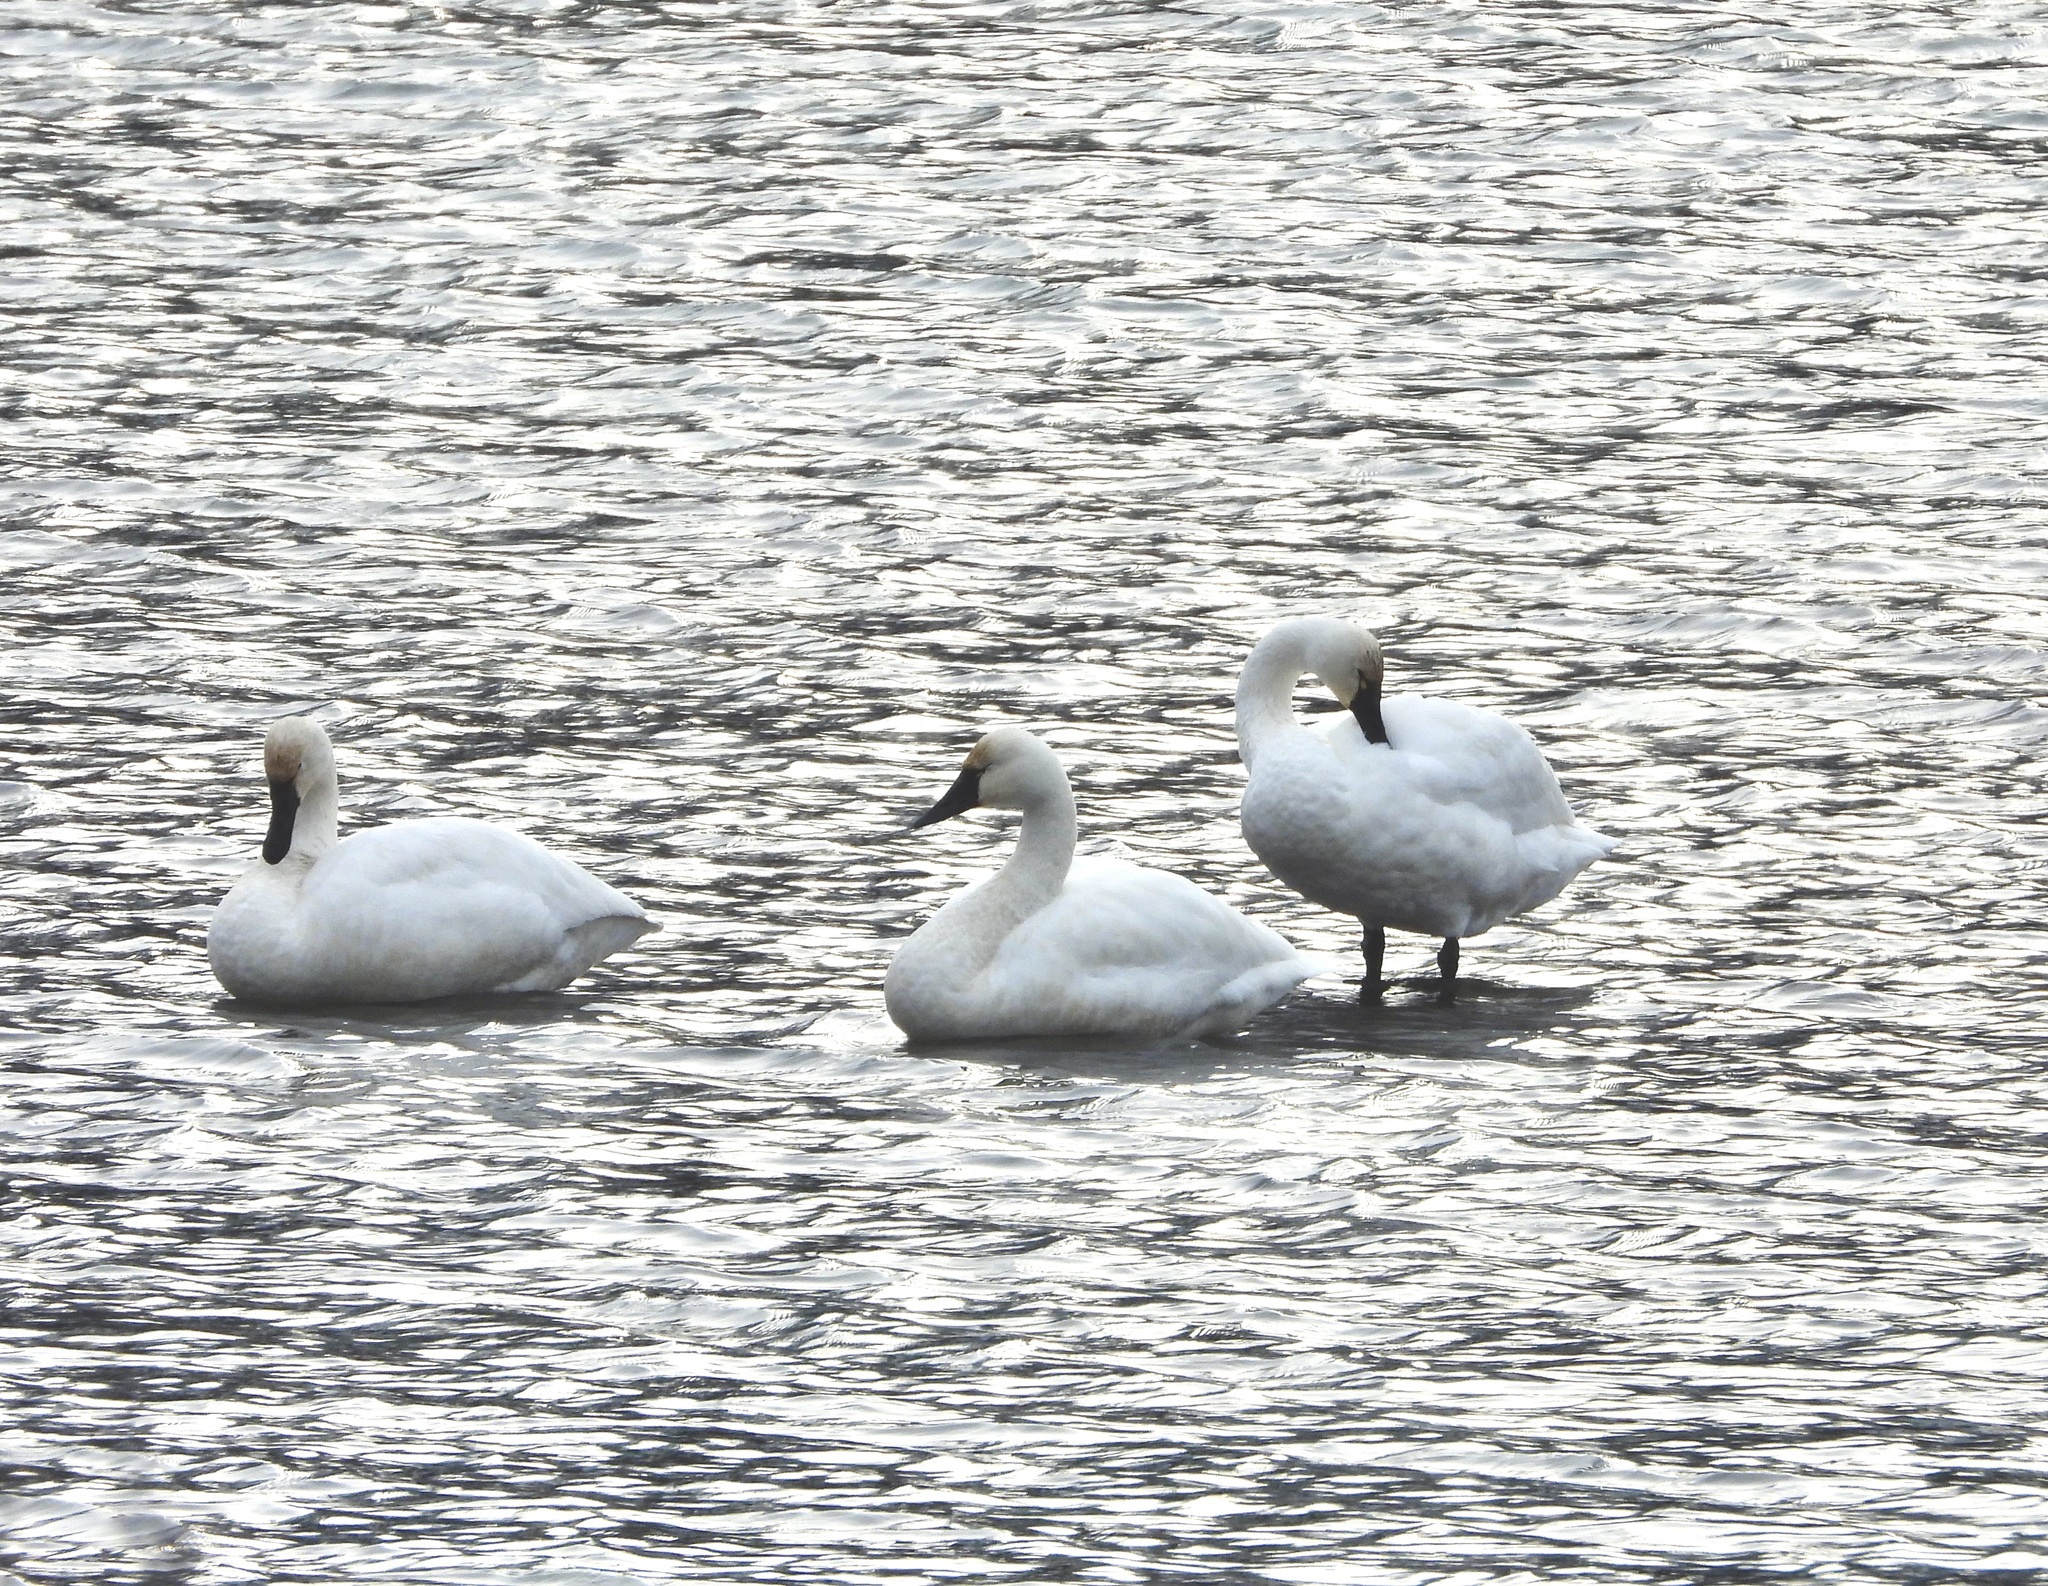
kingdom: Animalia
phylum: Chordata
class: Aves
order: Anseriformes
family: Anatidae
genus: Cygnus
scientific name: Cygnus columbianus
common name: Tundra swan
